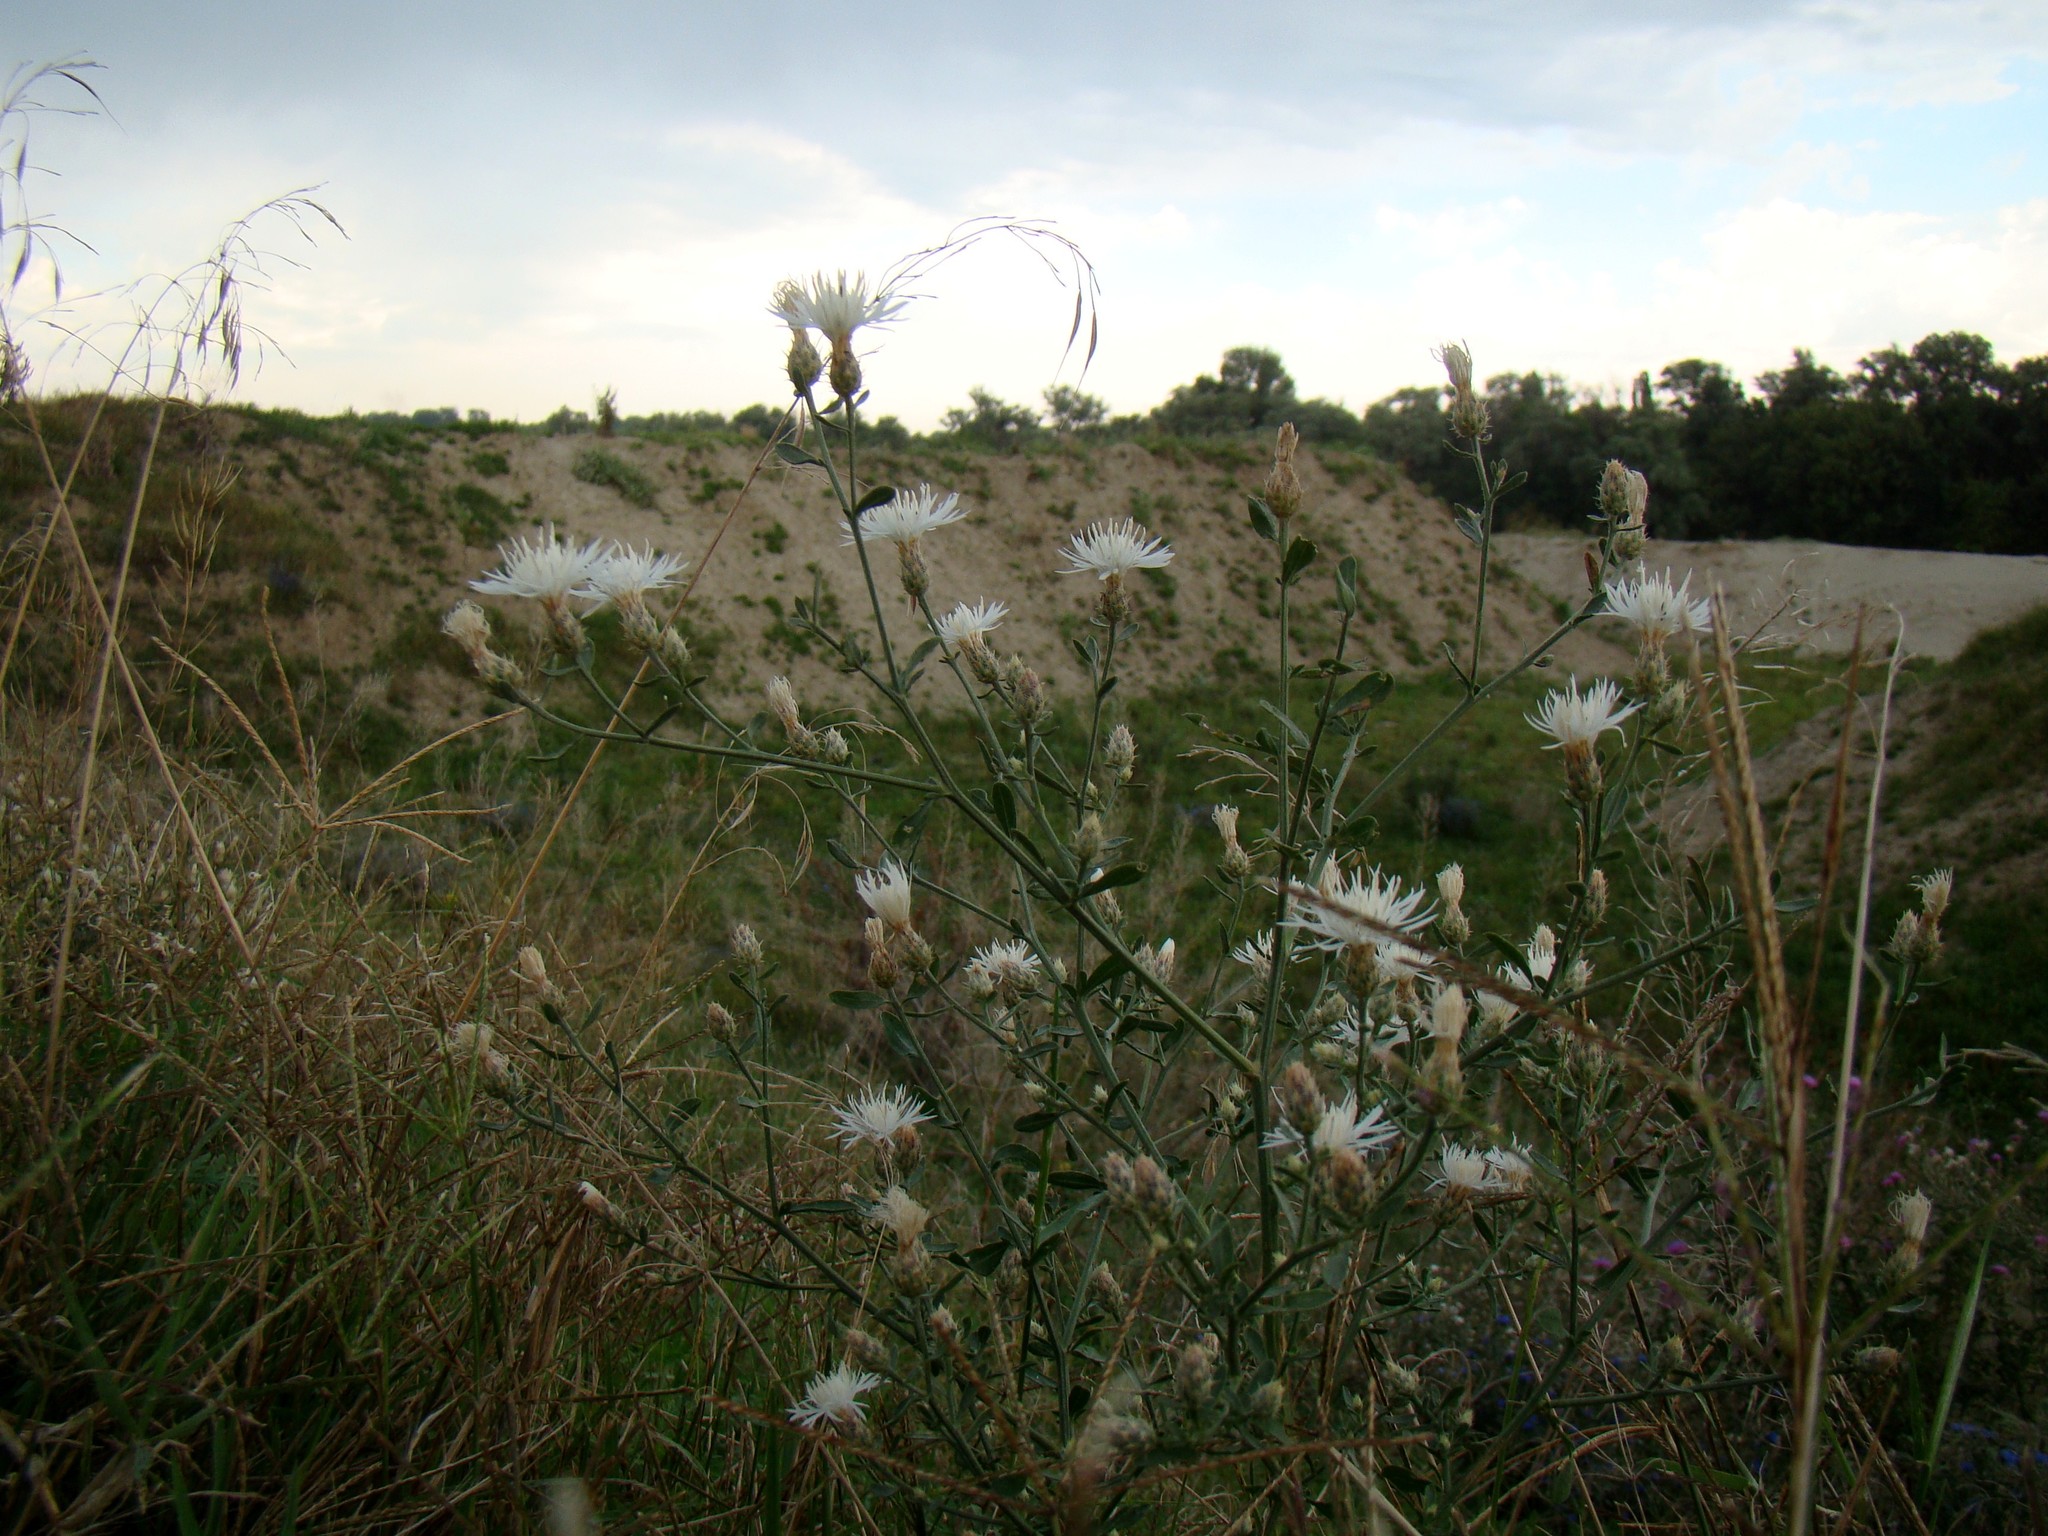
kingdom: Plantae
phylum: Tracheophyta
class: Magnoliopsida
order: Asterales
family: Asteraceae
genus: Centaurea
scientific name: Centaurea diffusa
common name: Diffuse knapweed
